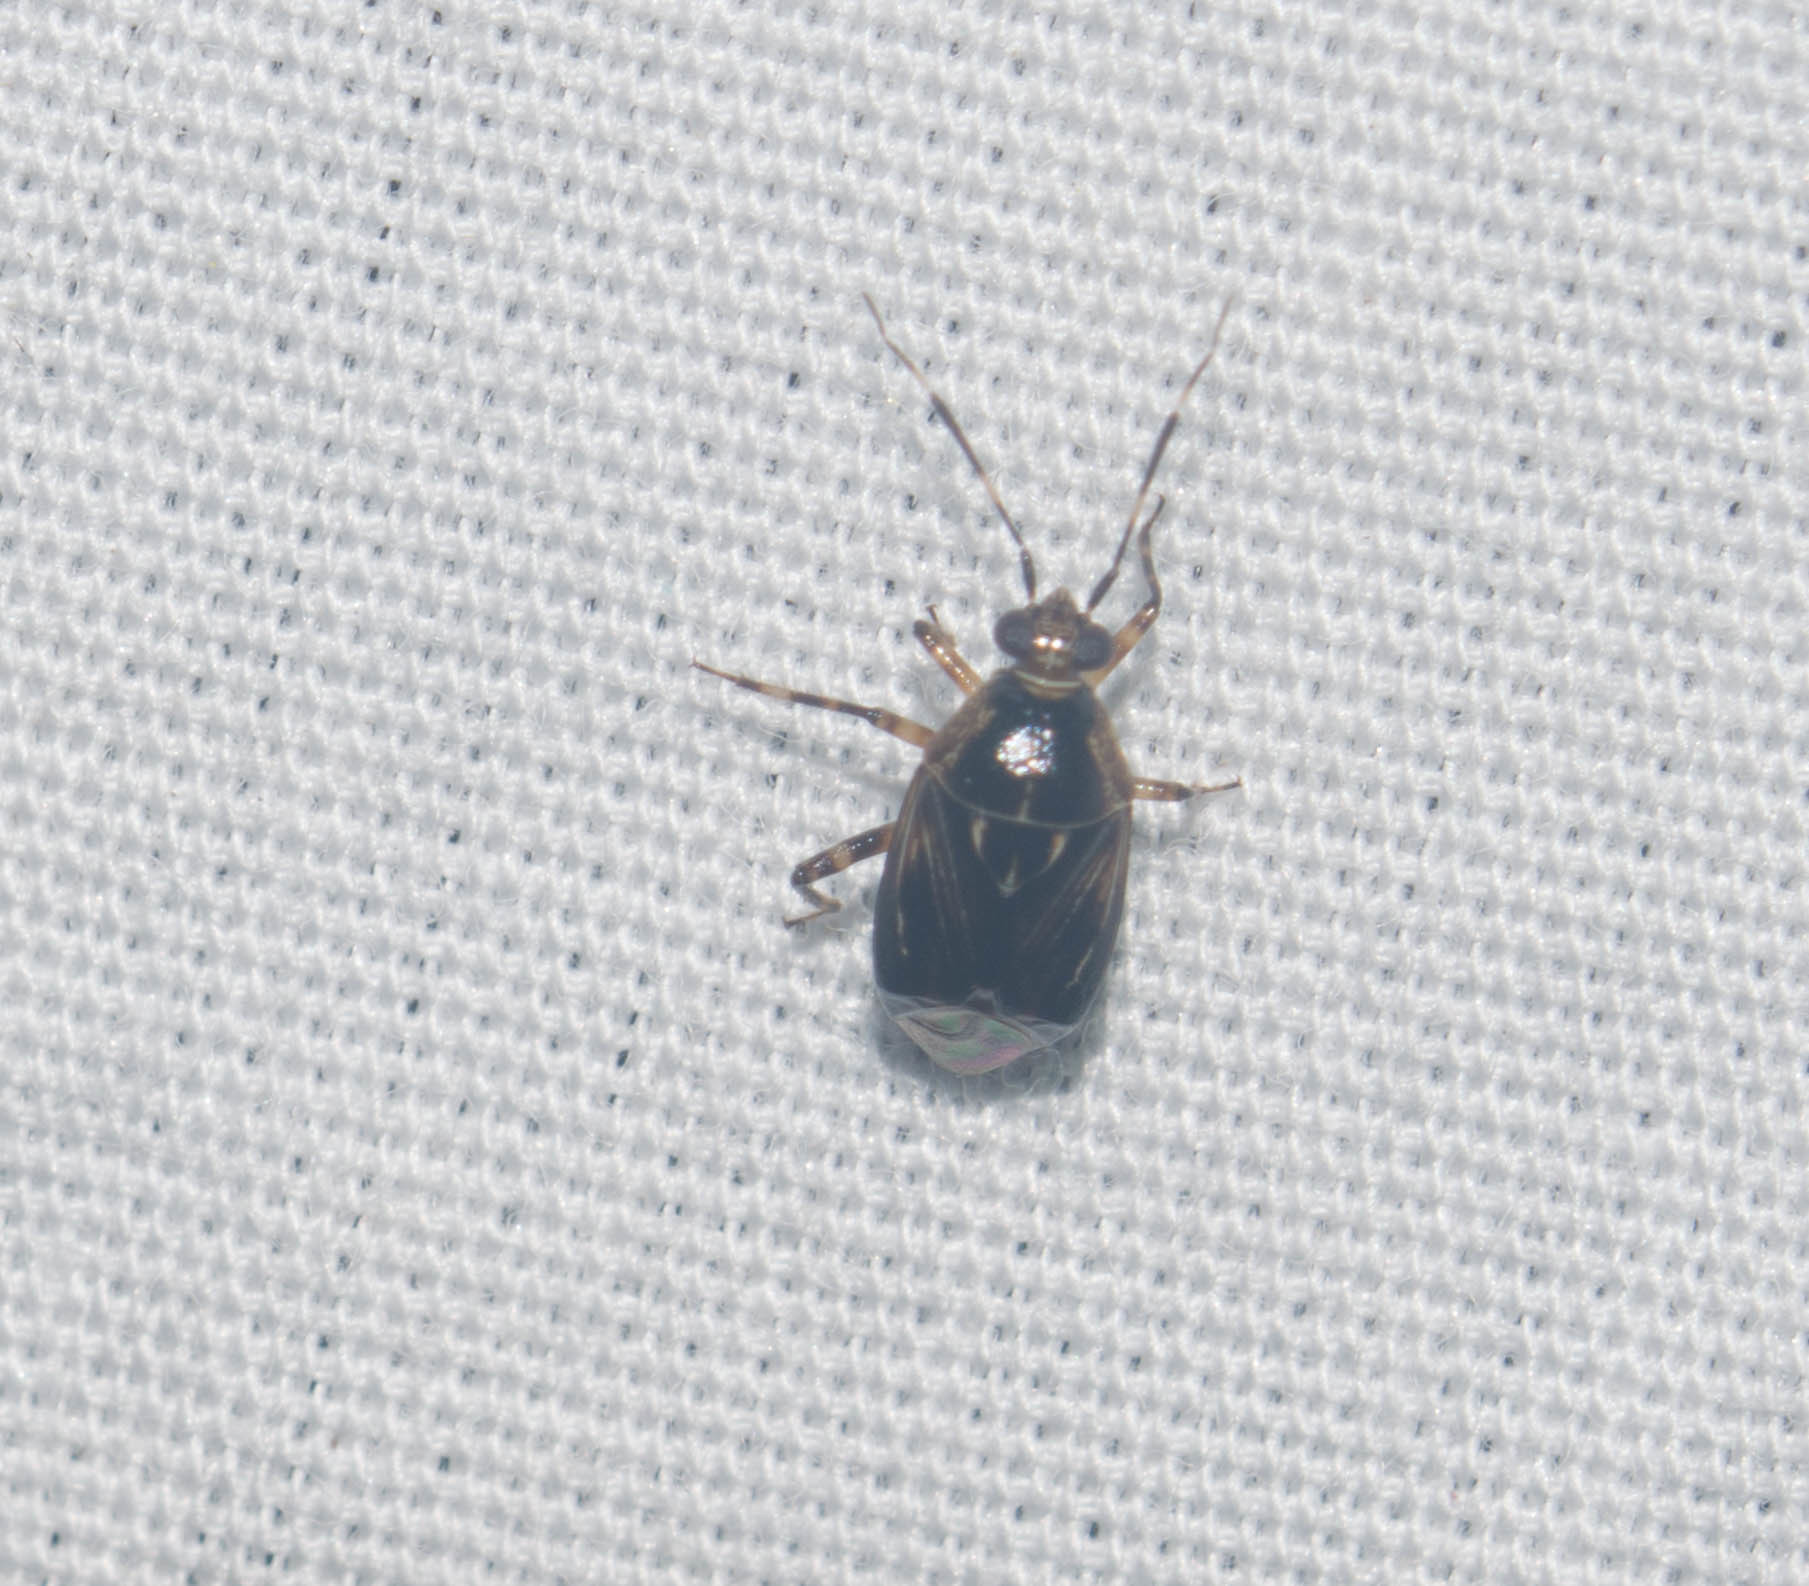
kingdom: Animalia
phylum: Arthropoda
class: Insecta
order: Hemiptera
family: Miridae
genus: Deraeocoris
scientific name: Deraeocoris orientalis
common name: Predatory plant bug
